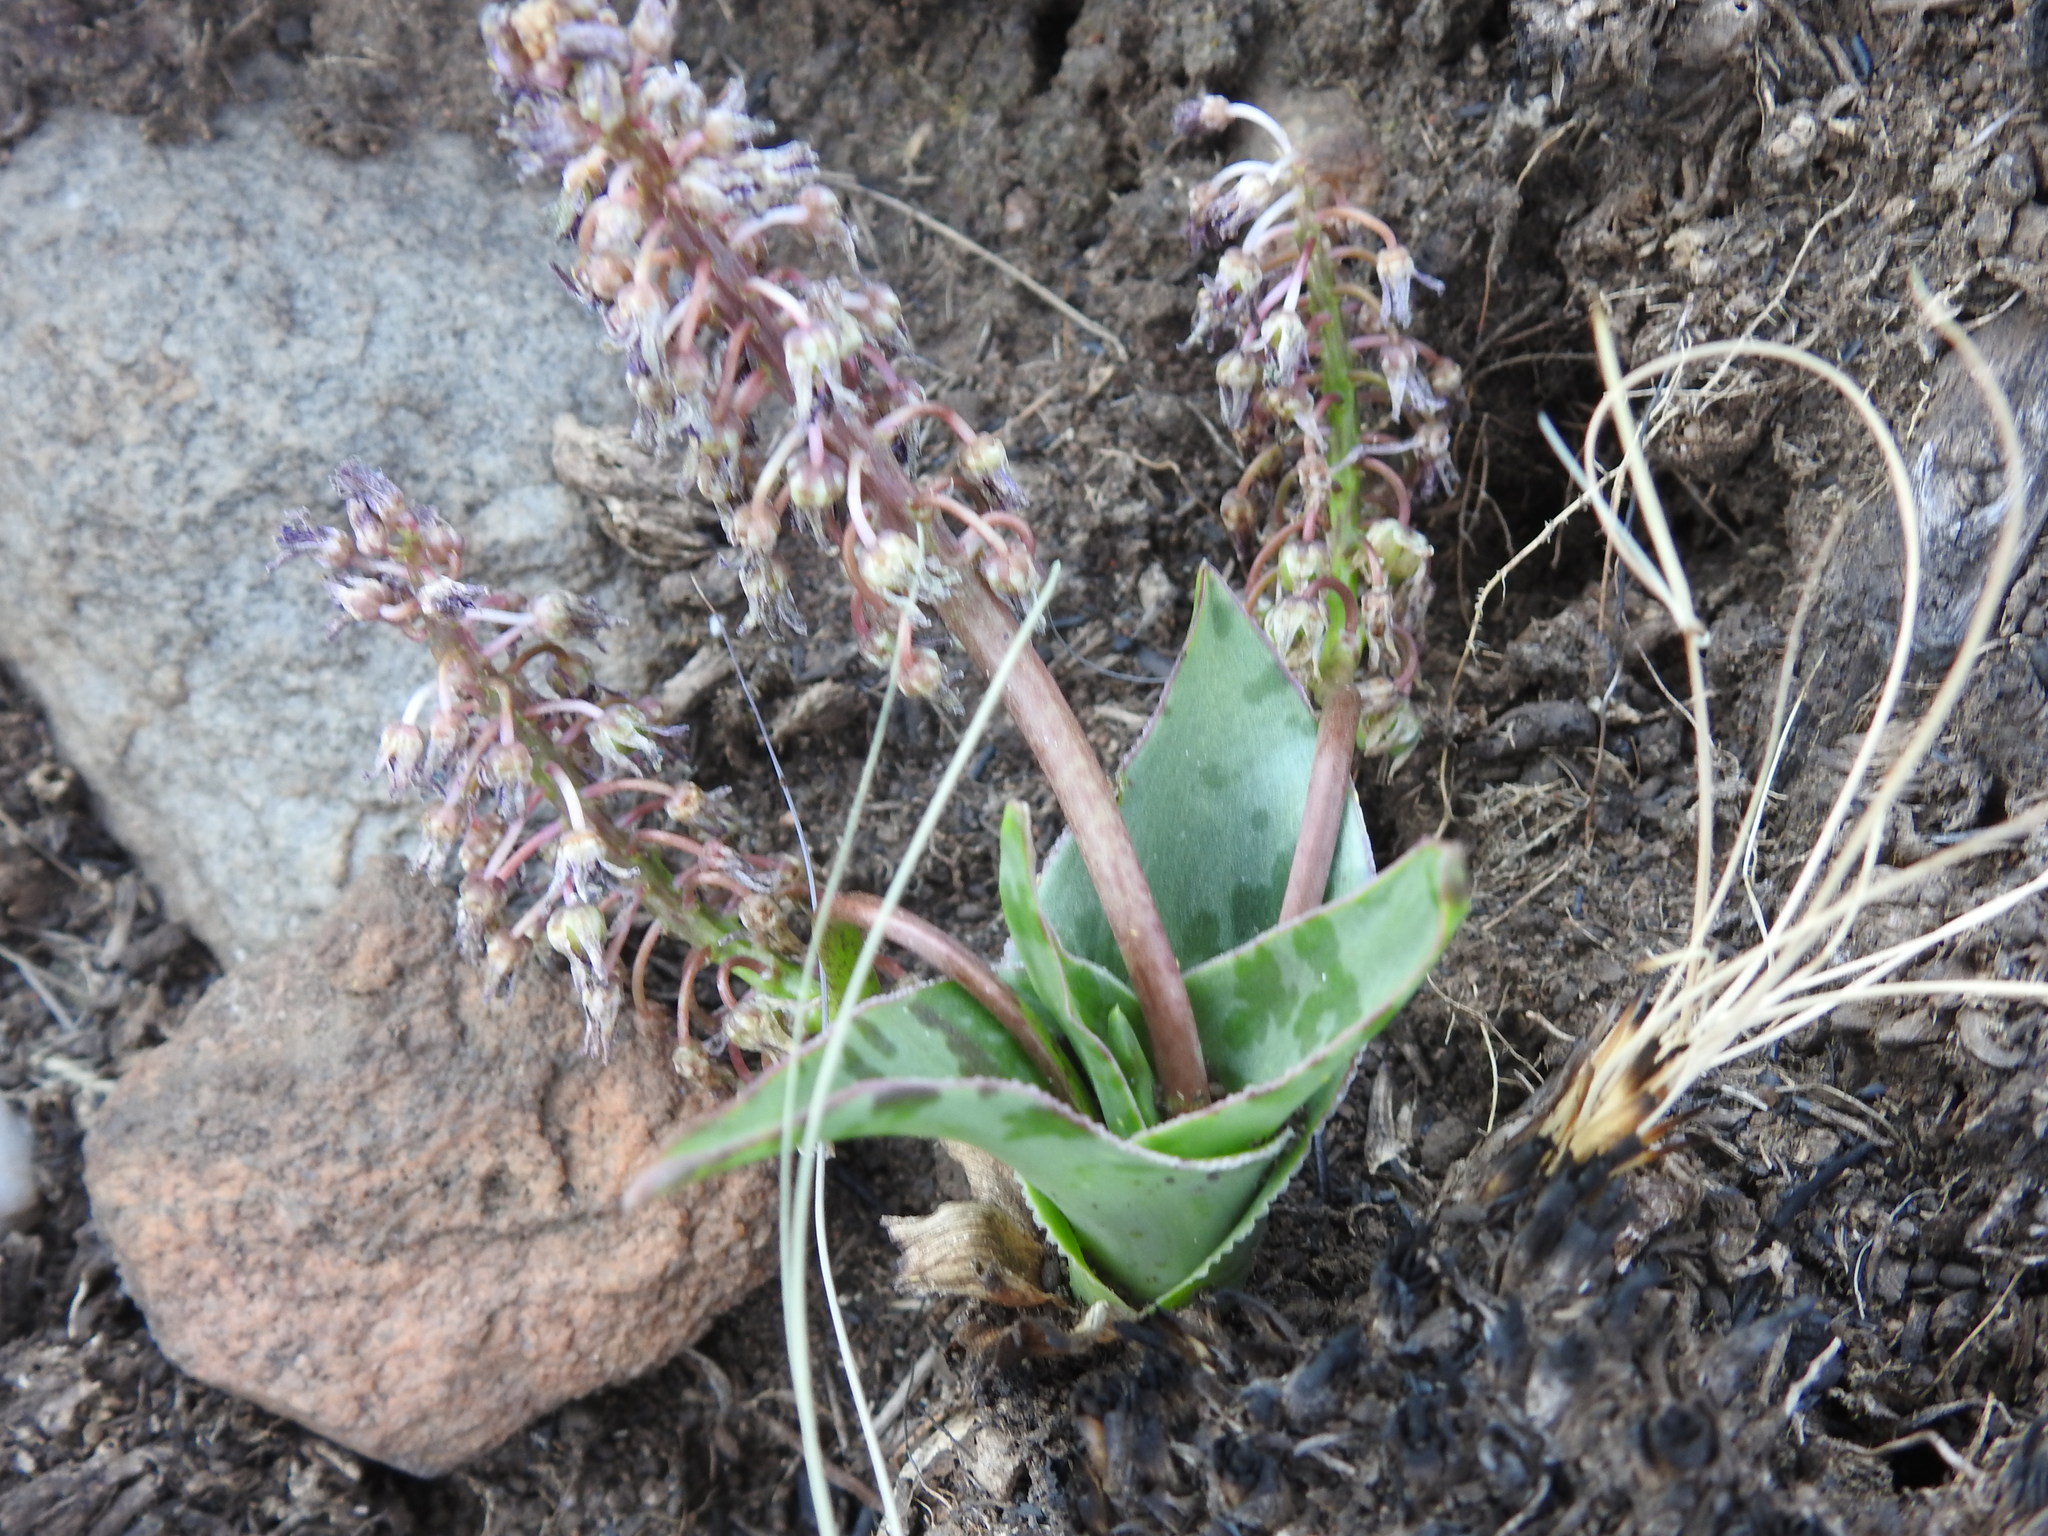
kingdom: Plantae
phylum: Tracheophyta
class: Liliopsida
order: Asparagales
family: Asparagaceae
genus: Ledebouria
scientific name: Ledebouria luteola
